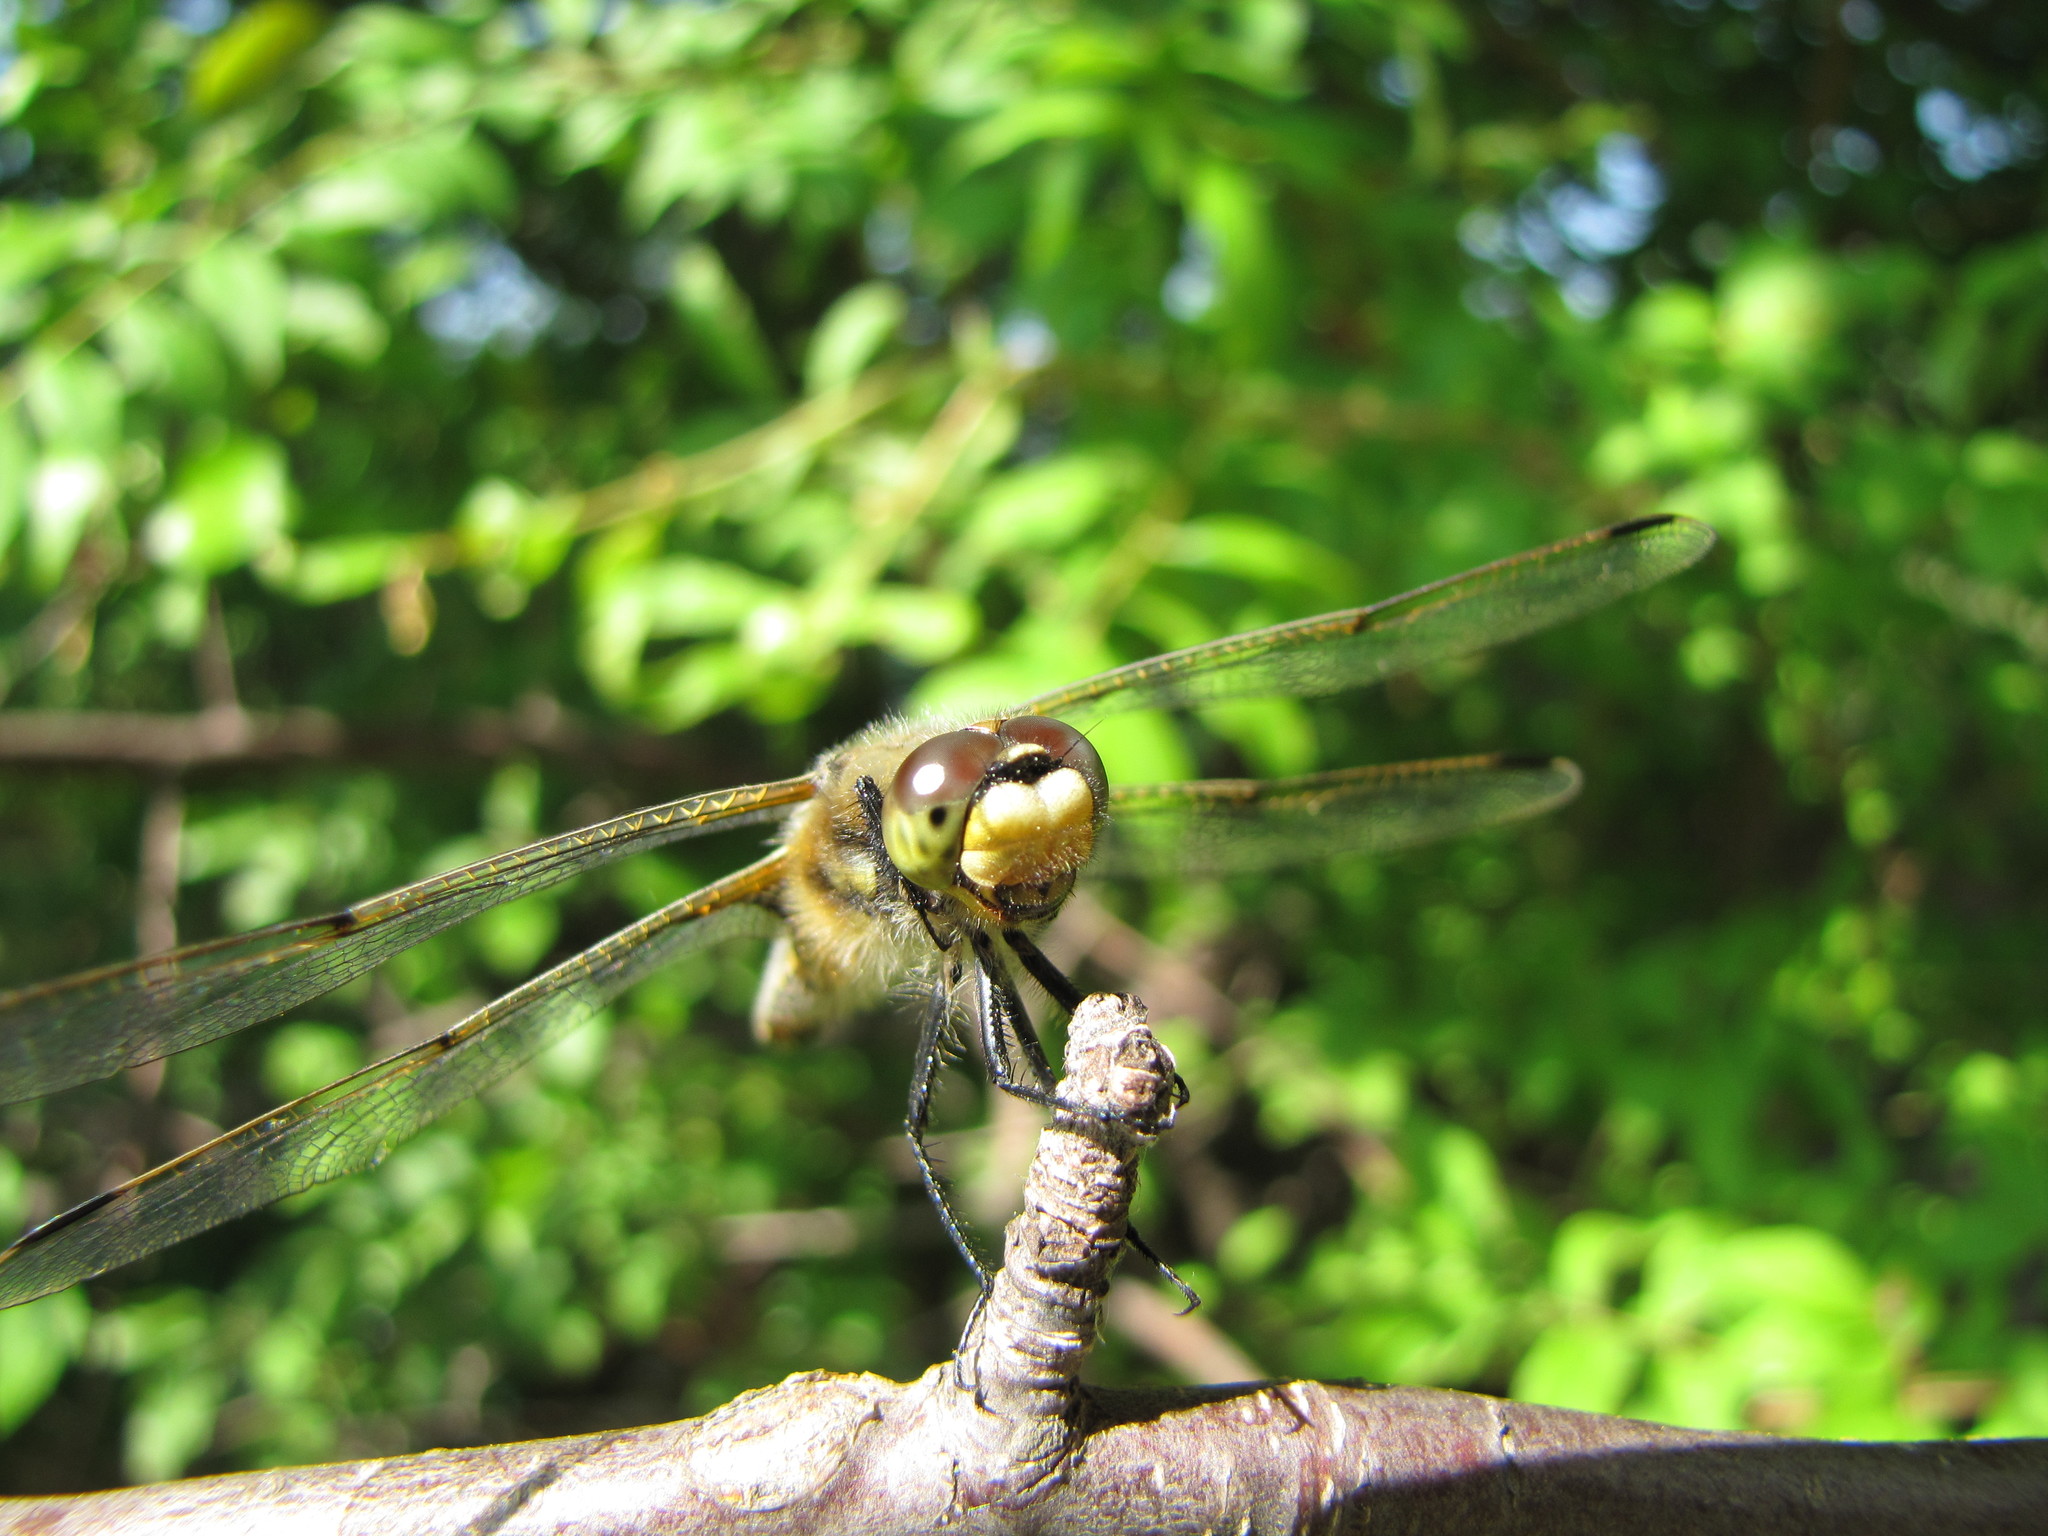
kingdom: Animalia
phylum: Arthropoda
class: Insecta
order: Odonata
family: Libellulidae
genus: Libellula
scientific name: Libellula quadrimaculata
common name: Four-spotted chaser
